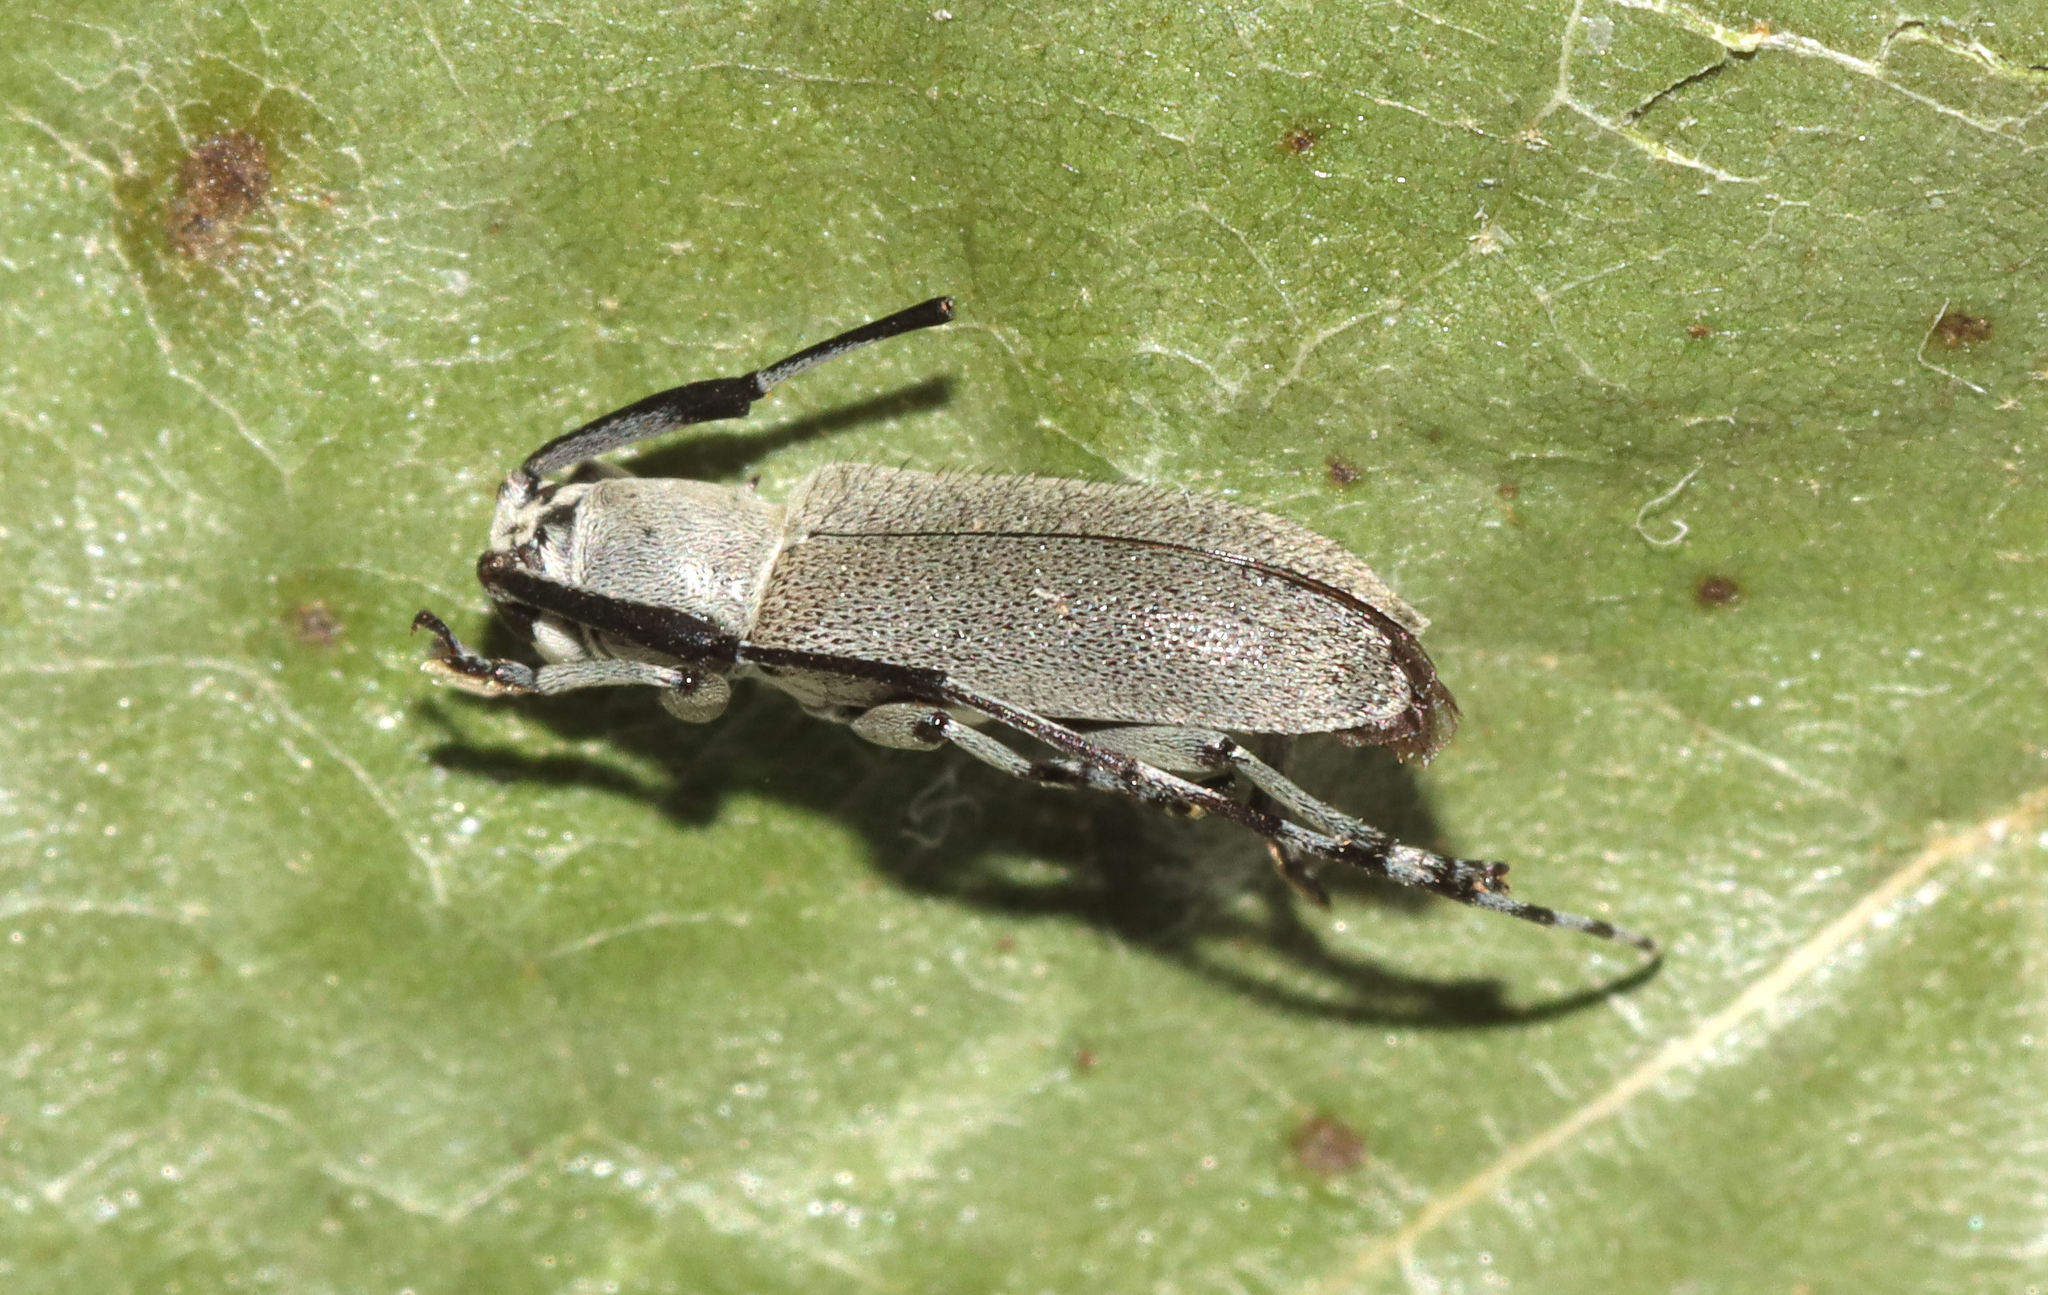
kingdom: Animalia
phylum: Arthropoda
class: Insecta
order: Coleoptera
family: Cerambycidae
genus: Dectes
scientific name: Dectes texanus
